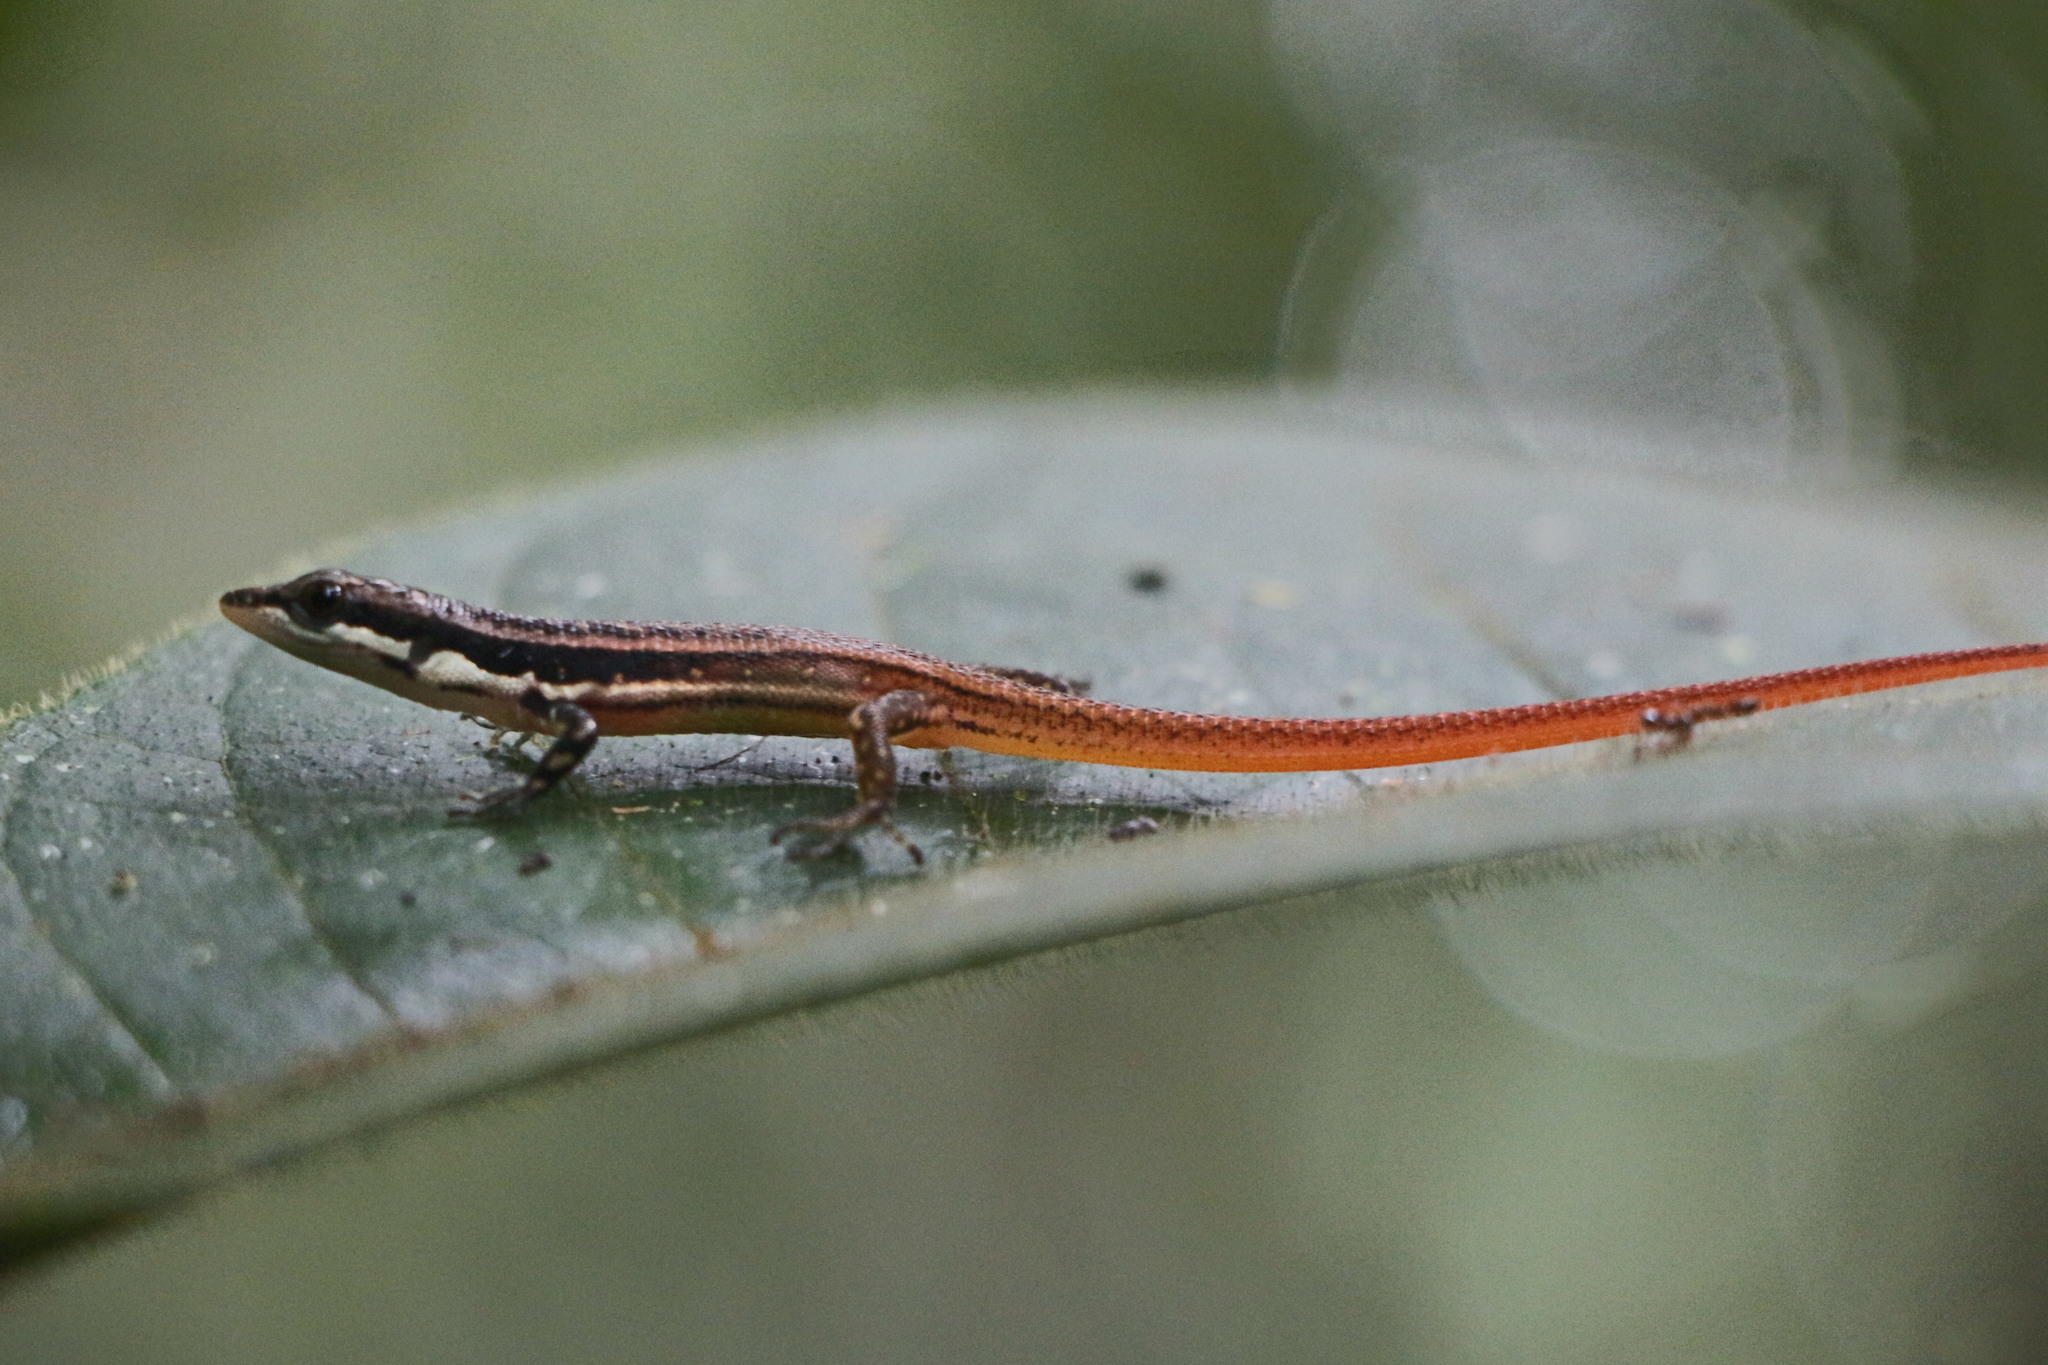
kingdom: Animalia
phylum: Chordata
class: Squamata
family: Gymnophthalmidae
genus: Cercosaura
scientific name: Cercosaura argulus
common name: White-lipped cercosaura
